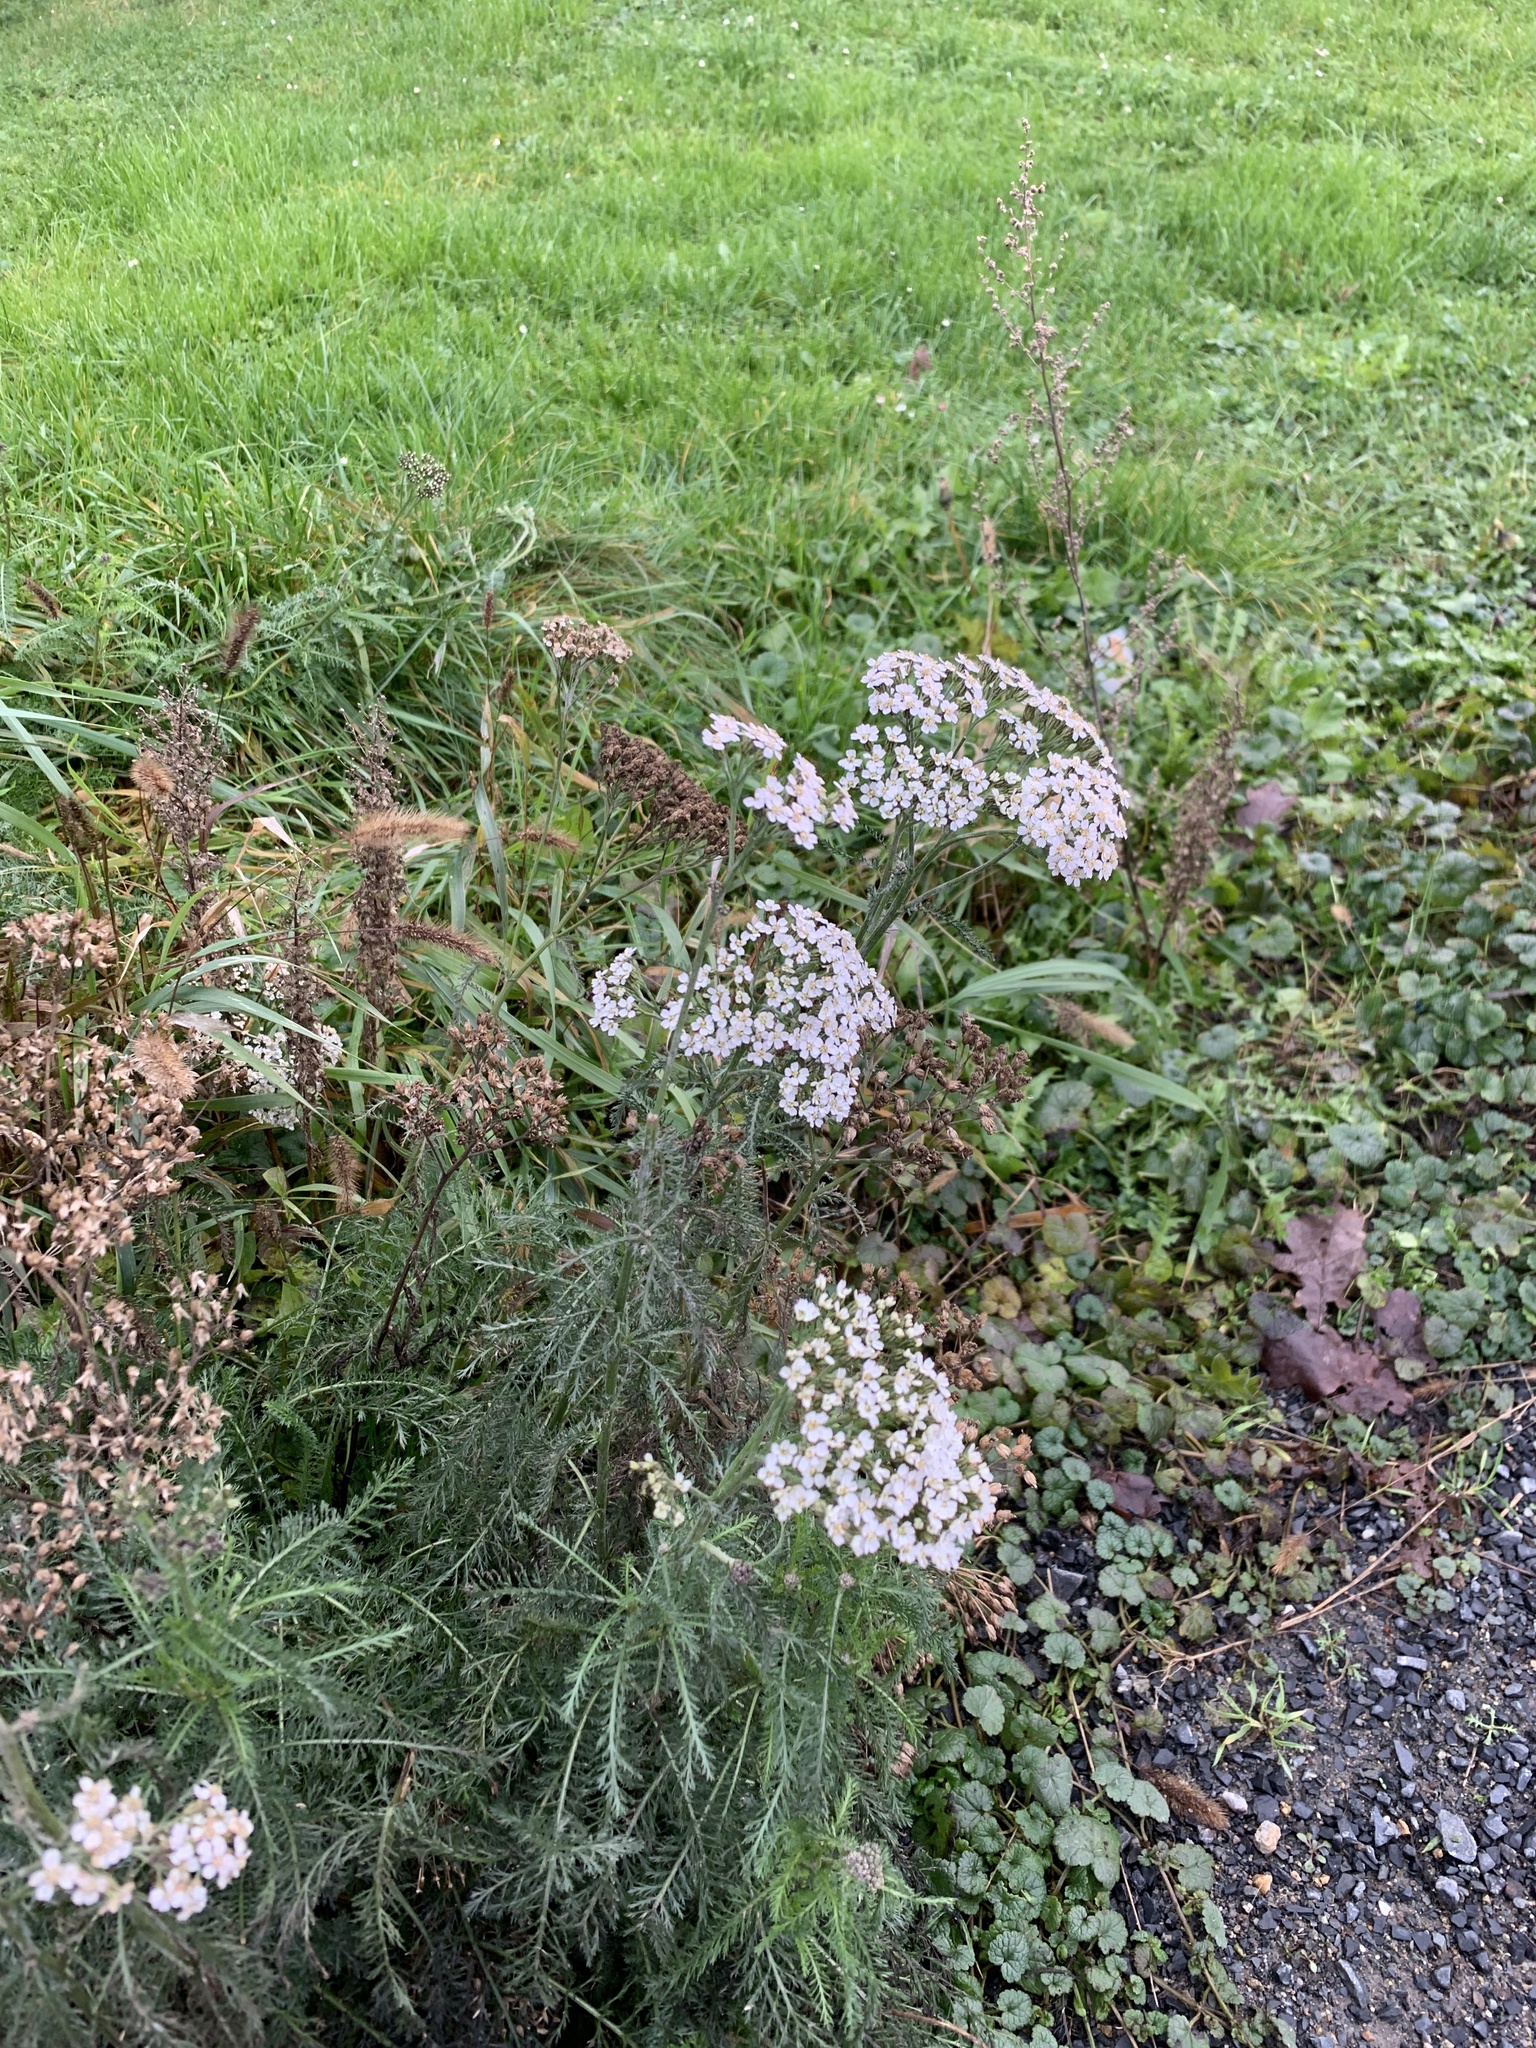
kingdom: Plantae
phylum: Tracheophyta
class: Magnoliopsida
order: Asterales
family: Asteraceae
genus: Achillea
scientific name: Achillea millefolium
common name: Yarrow
